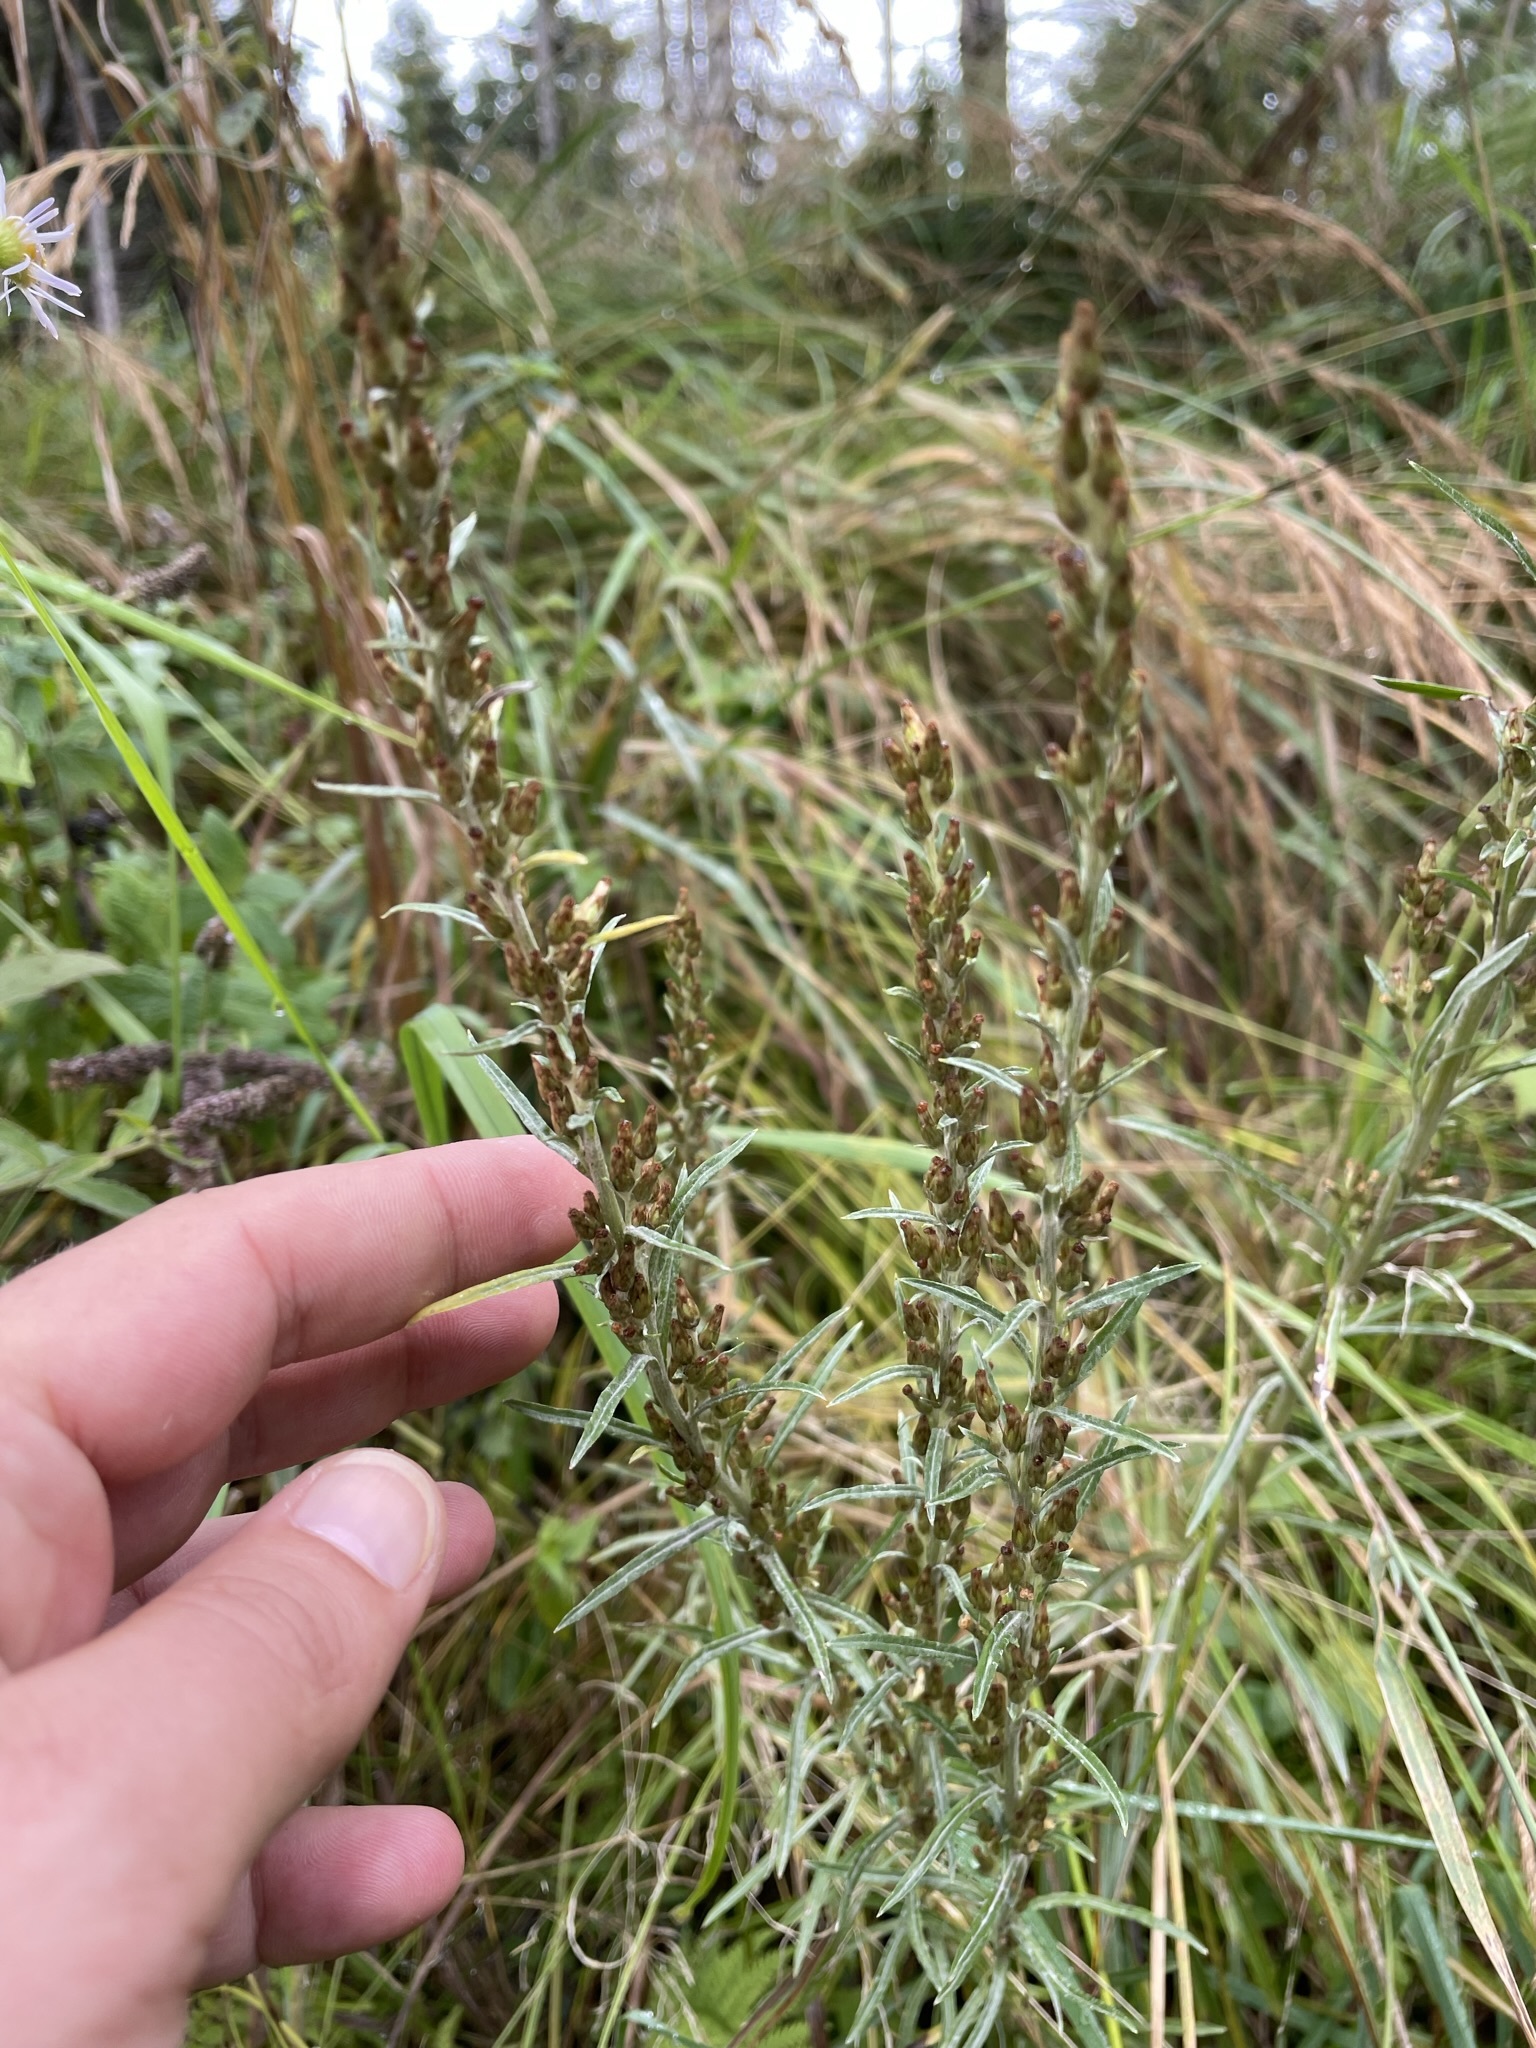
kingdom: Plantae
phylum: Tracheophyta
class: Magnoliopsida
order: Asterales
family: Asteraceae
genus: Omalotheca
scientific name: Omalotheca sylvatica
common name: Heath cudweed
